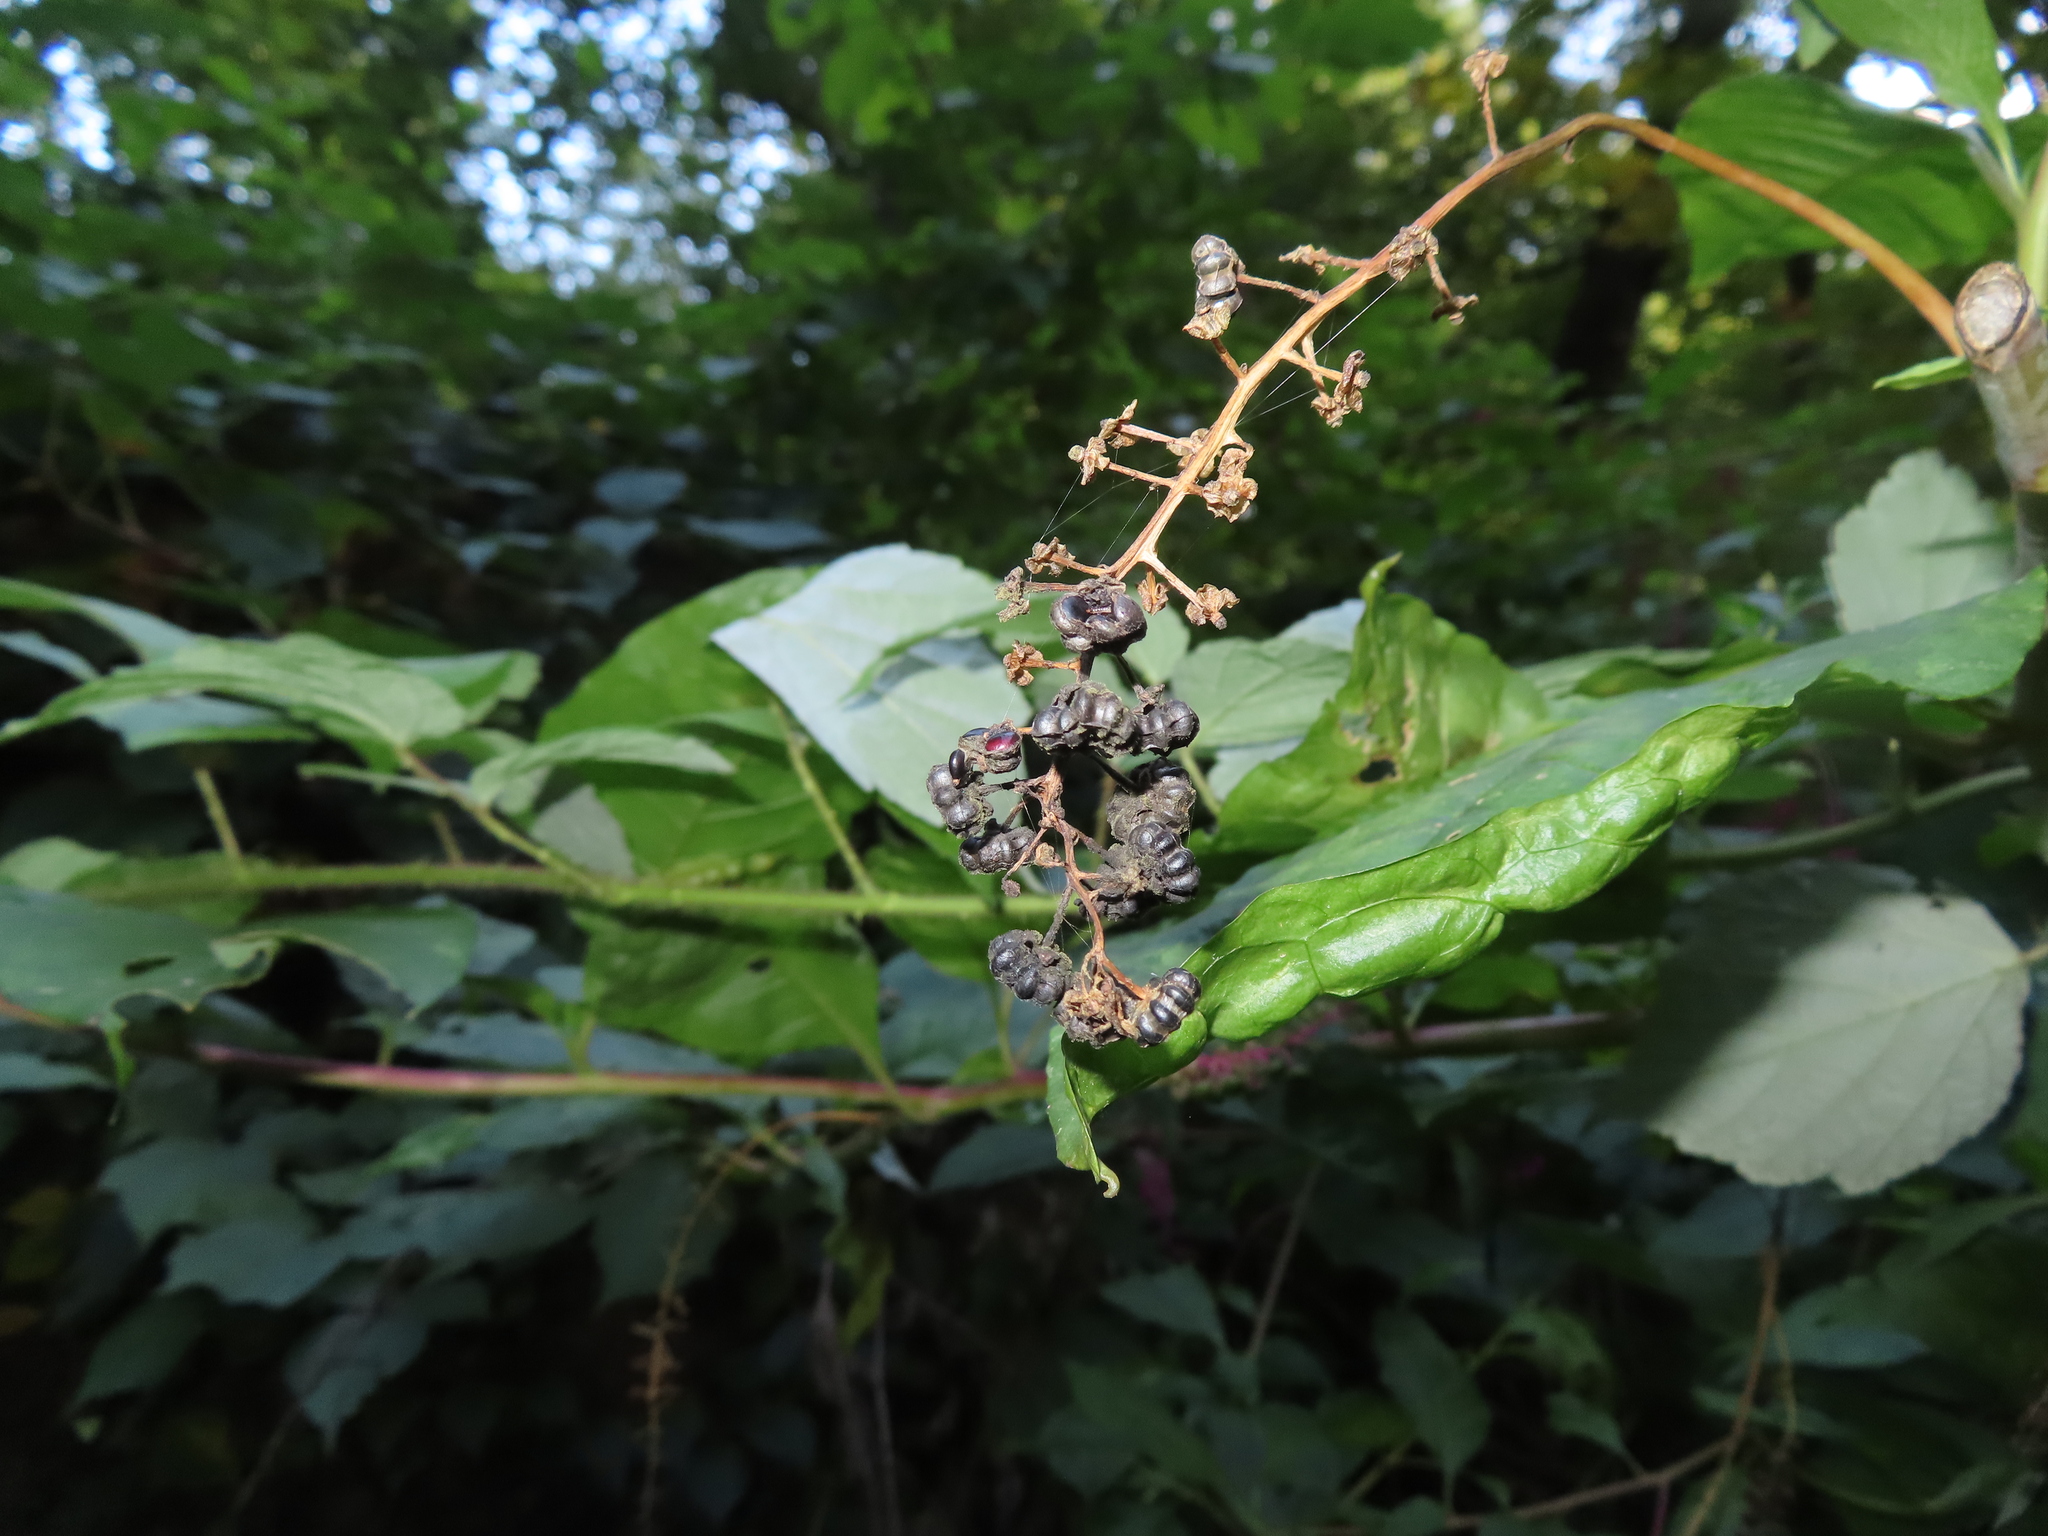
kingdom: Plantae
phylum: Tracheophyta
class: Magnoliopsida
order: Caryophyllales
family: Phytolaccaceae
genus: Phytolacca
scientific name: Phytolacca americana
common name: American pokeweed
